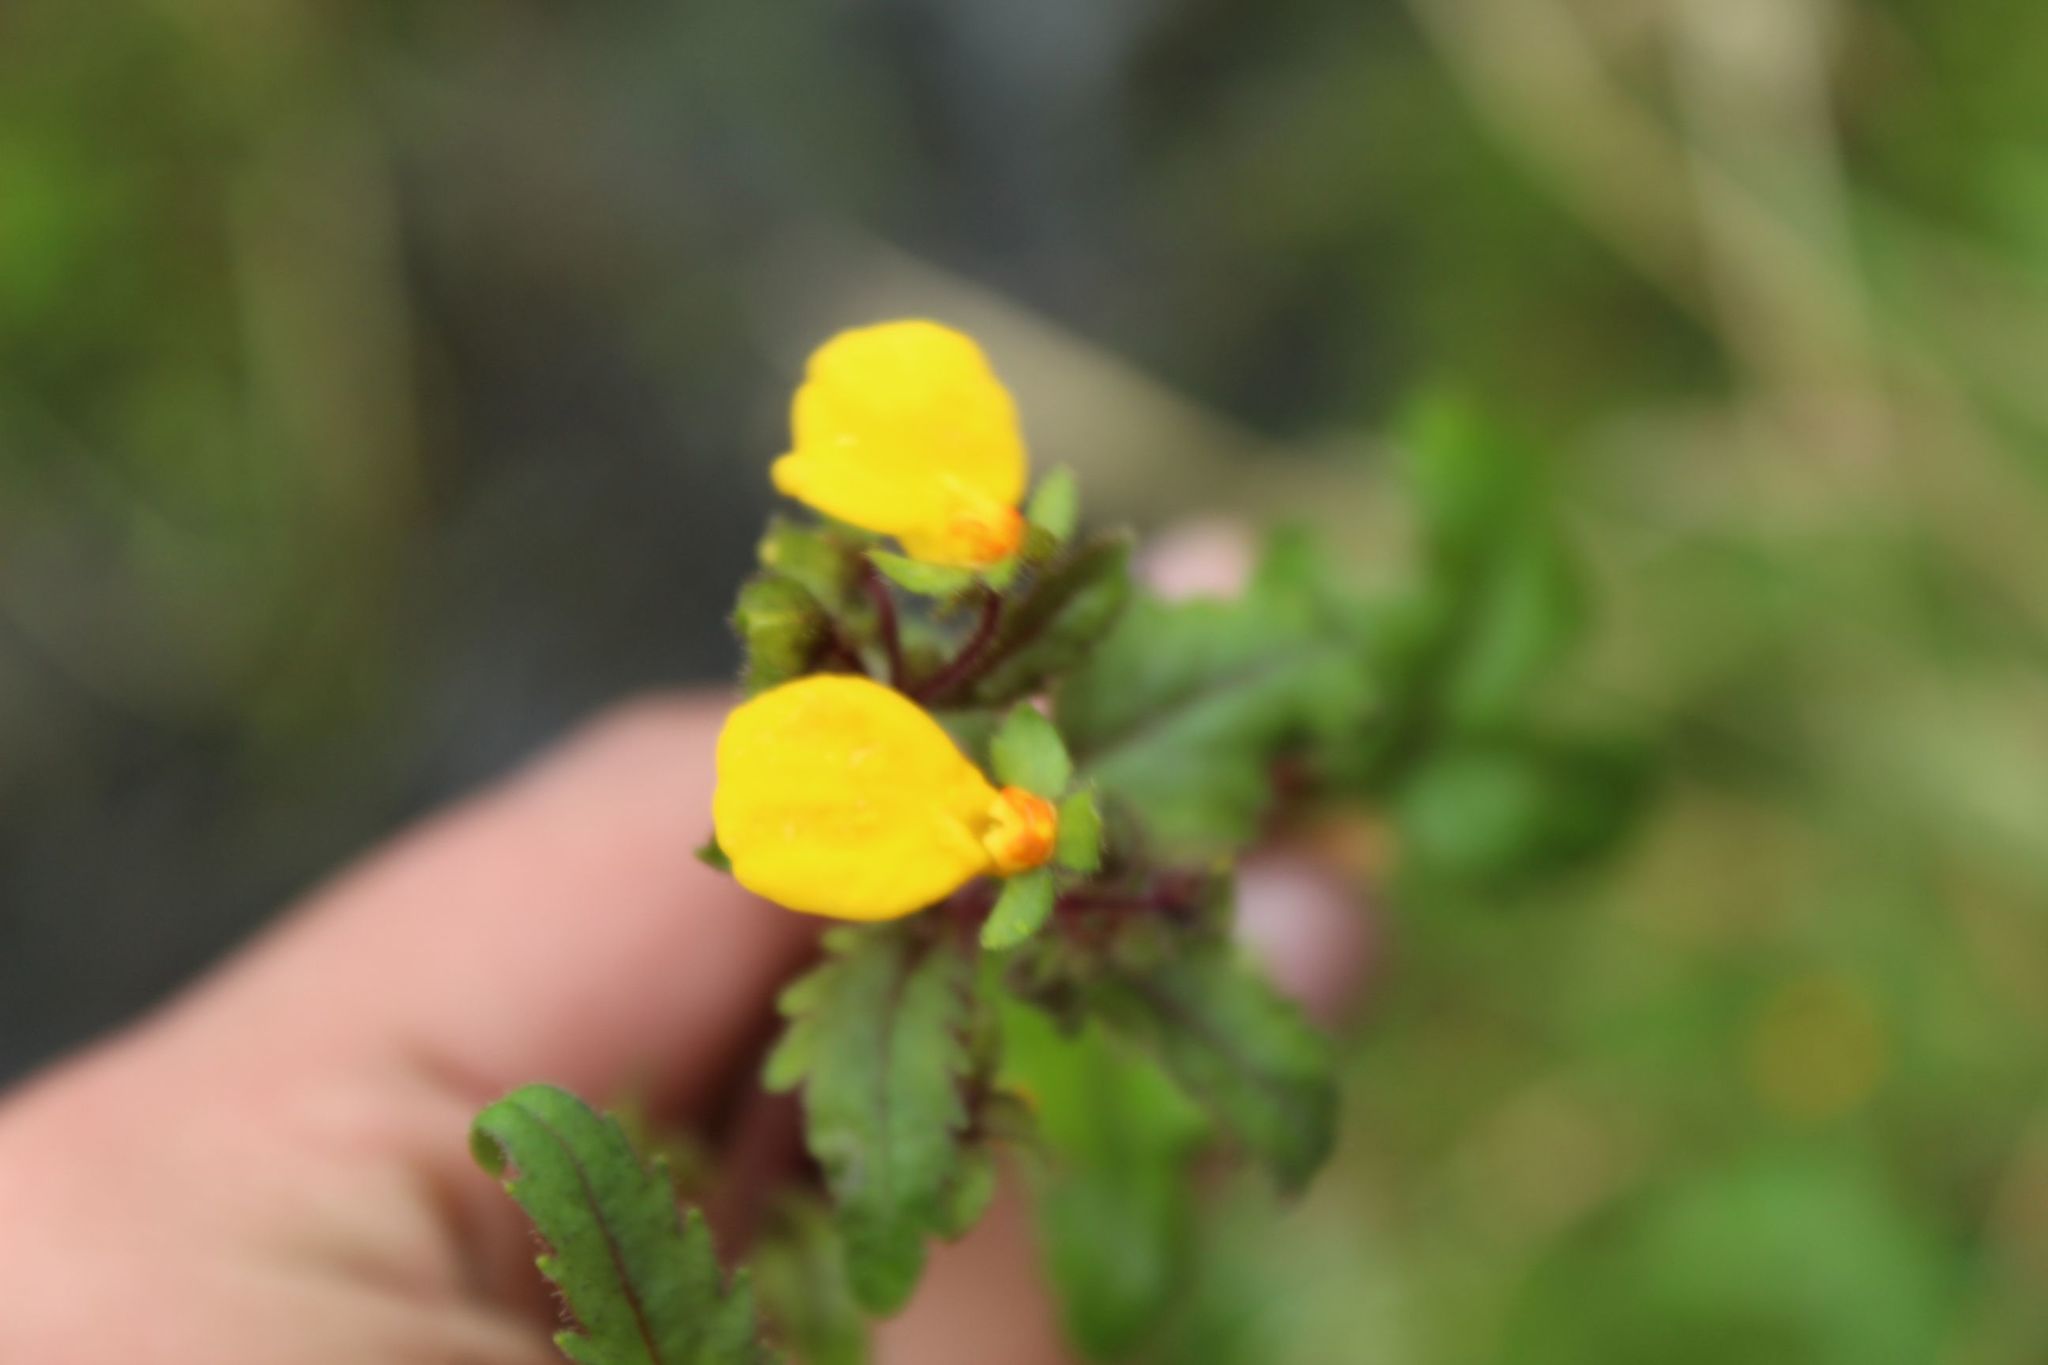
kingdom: Plantae
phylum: Tracheophyta
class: Magnoliopsida
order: Lamiales
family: Calceolariaceae
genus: Calceolaria
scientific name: Calceolaria mexicana
